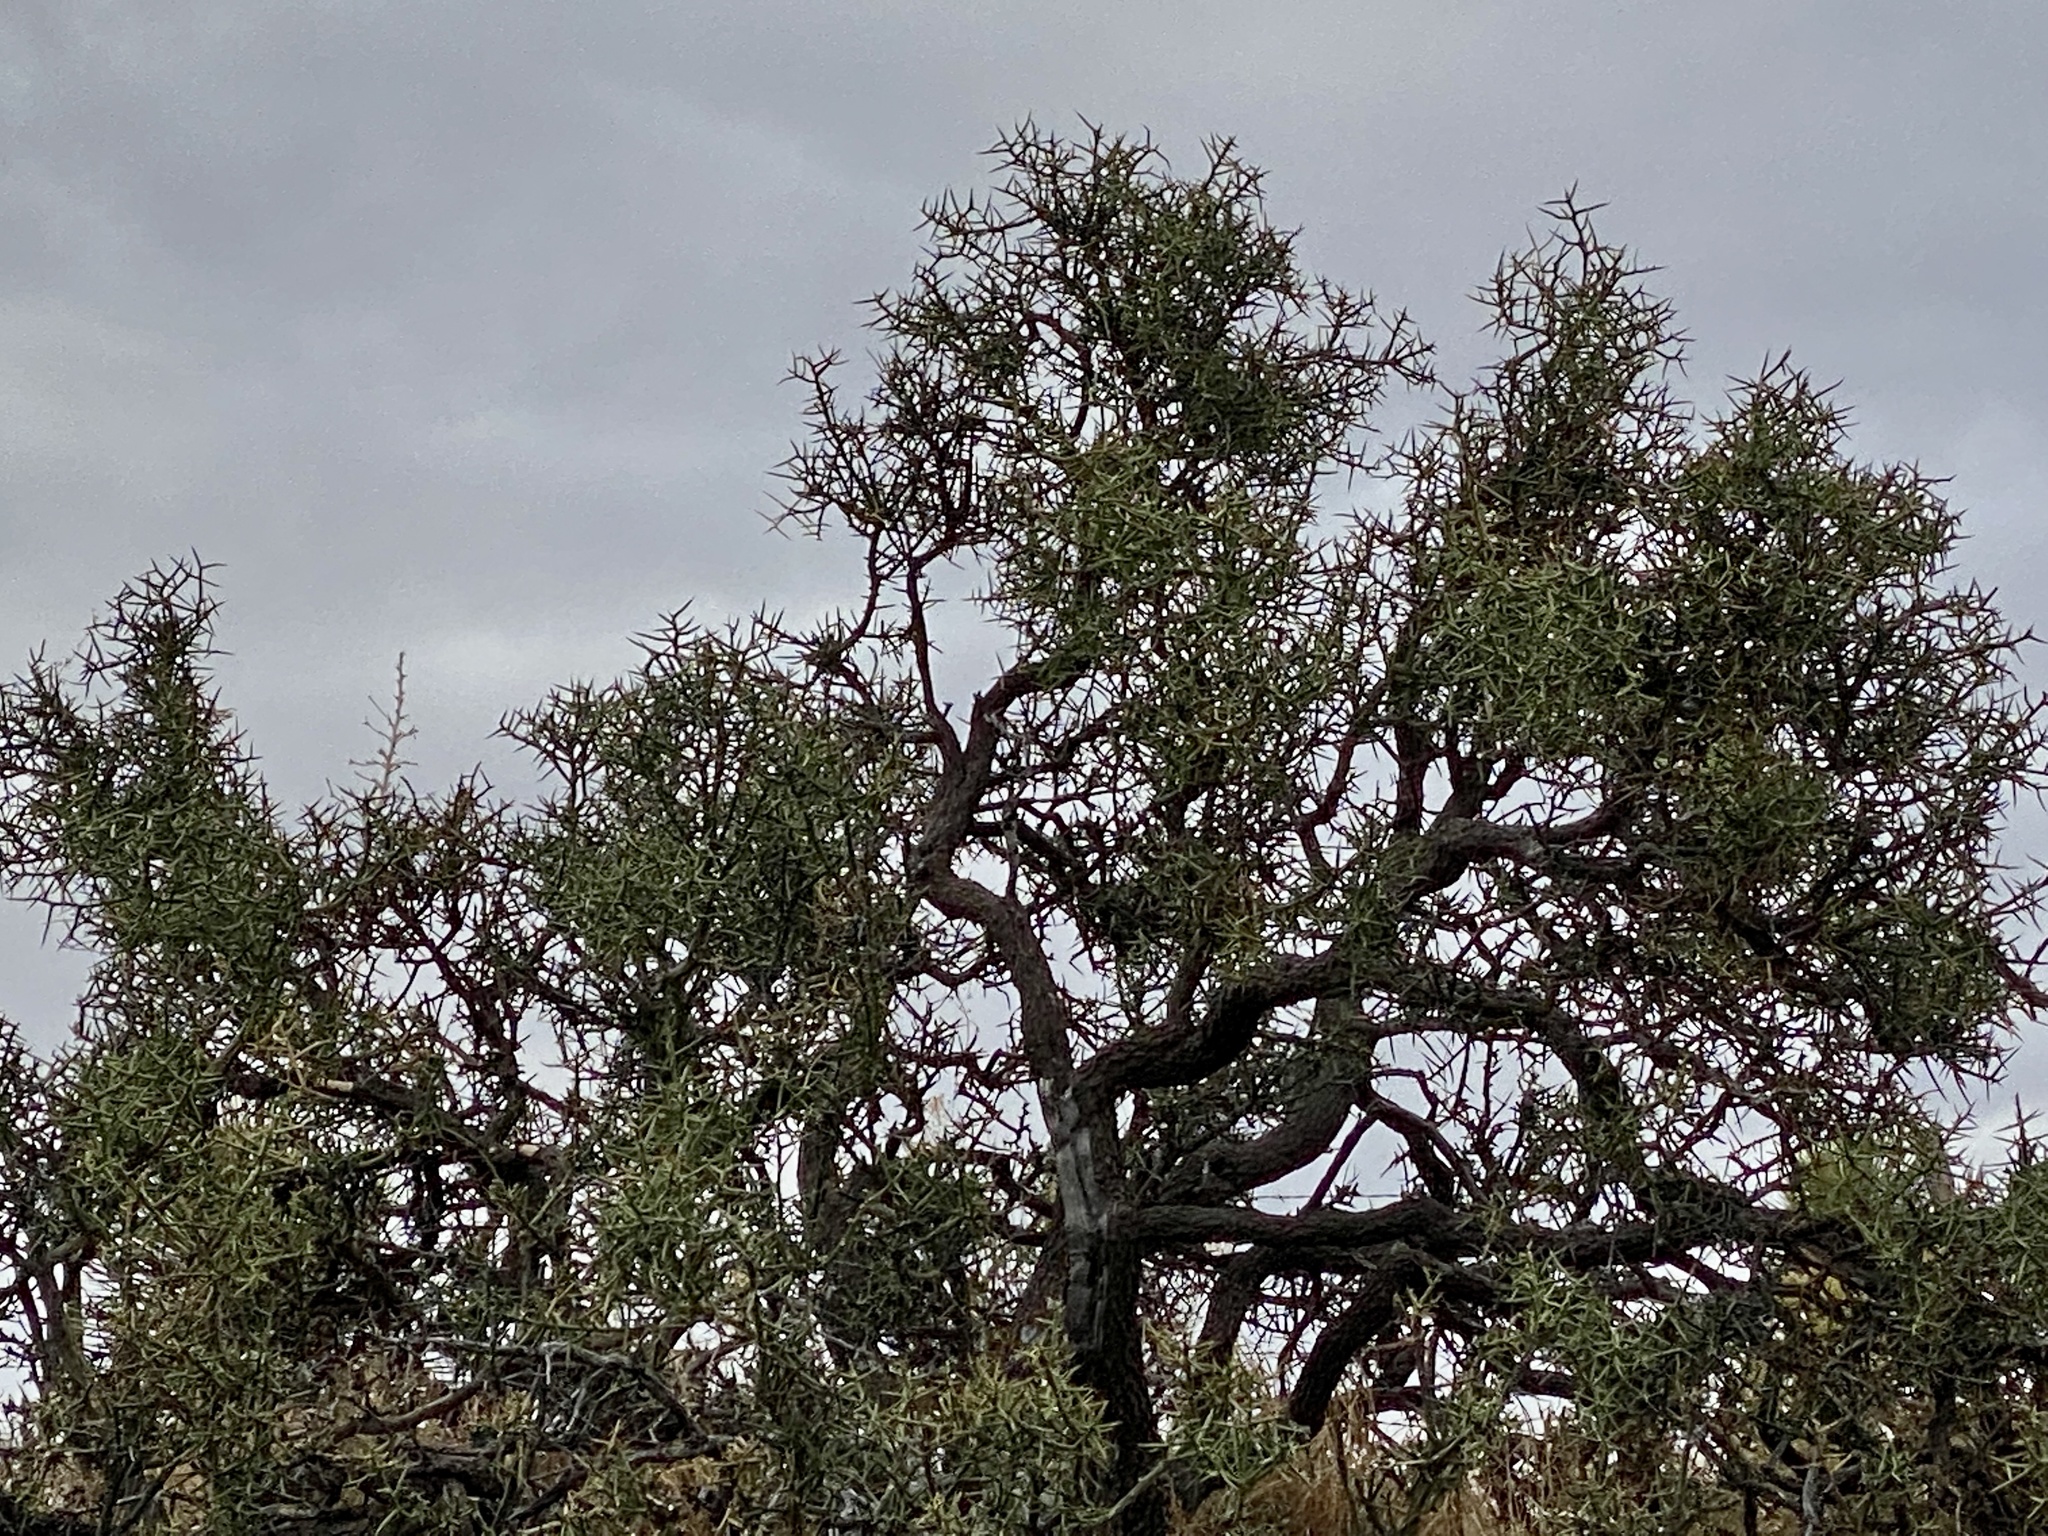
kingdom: Plantae
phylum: Tracheophyta
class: Magnoliopsida
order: Brassicales
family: Koeberliniaceae
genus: Koeberlinia
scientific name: Koeberlinia spinosa
